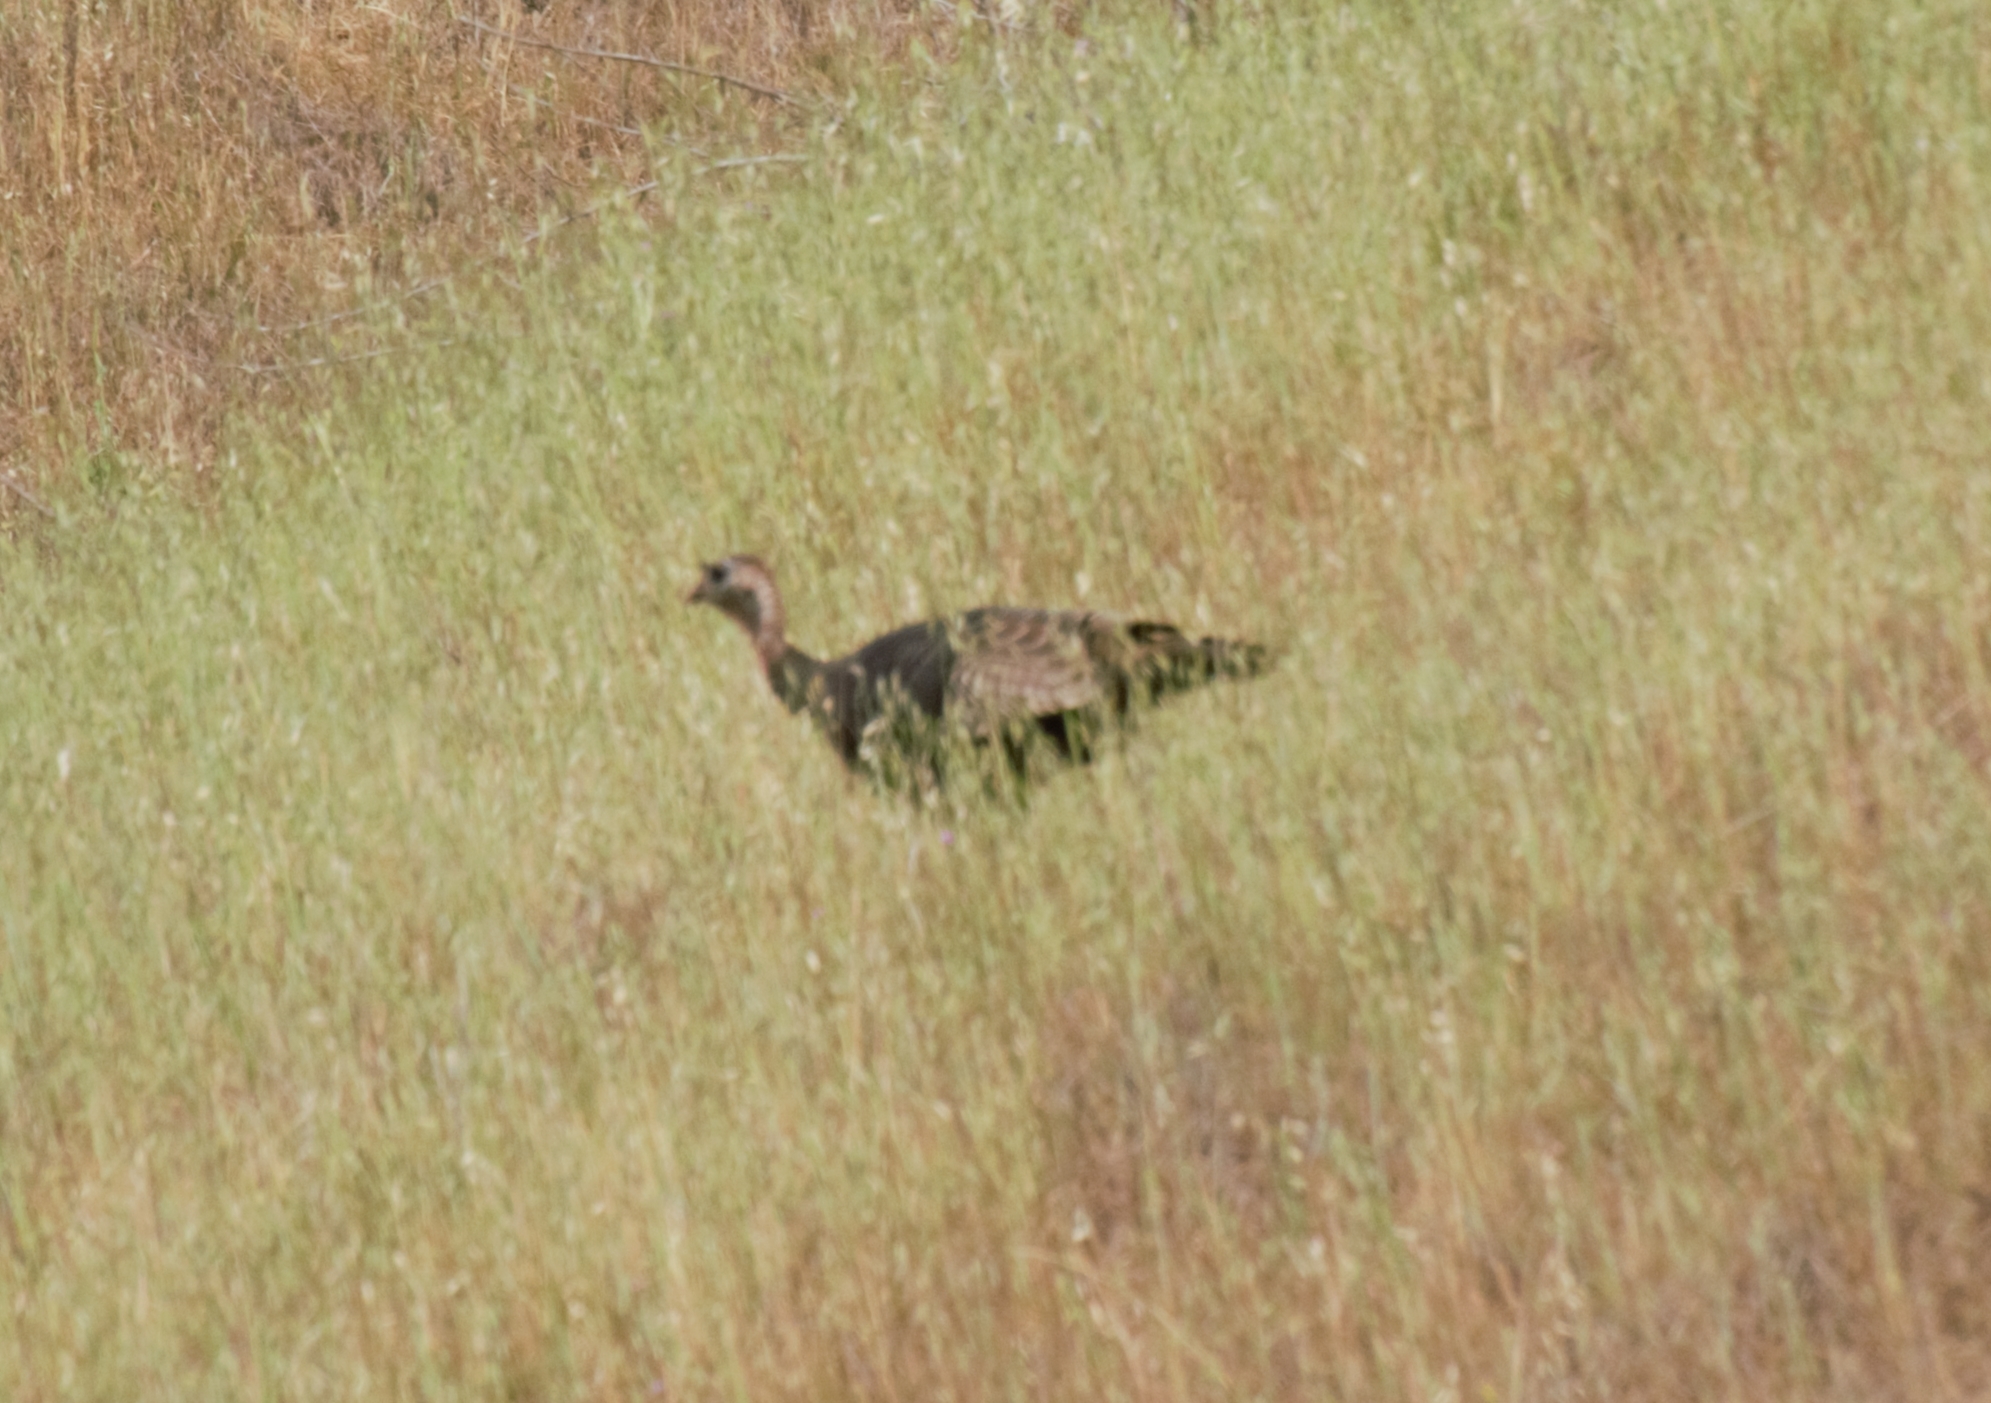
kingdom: Animalia
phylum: Chordata
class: Aves
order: Galliformes
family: Phasianidae
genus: Meleagris
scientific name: Meleagris gallopavo
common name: Wild turkey
